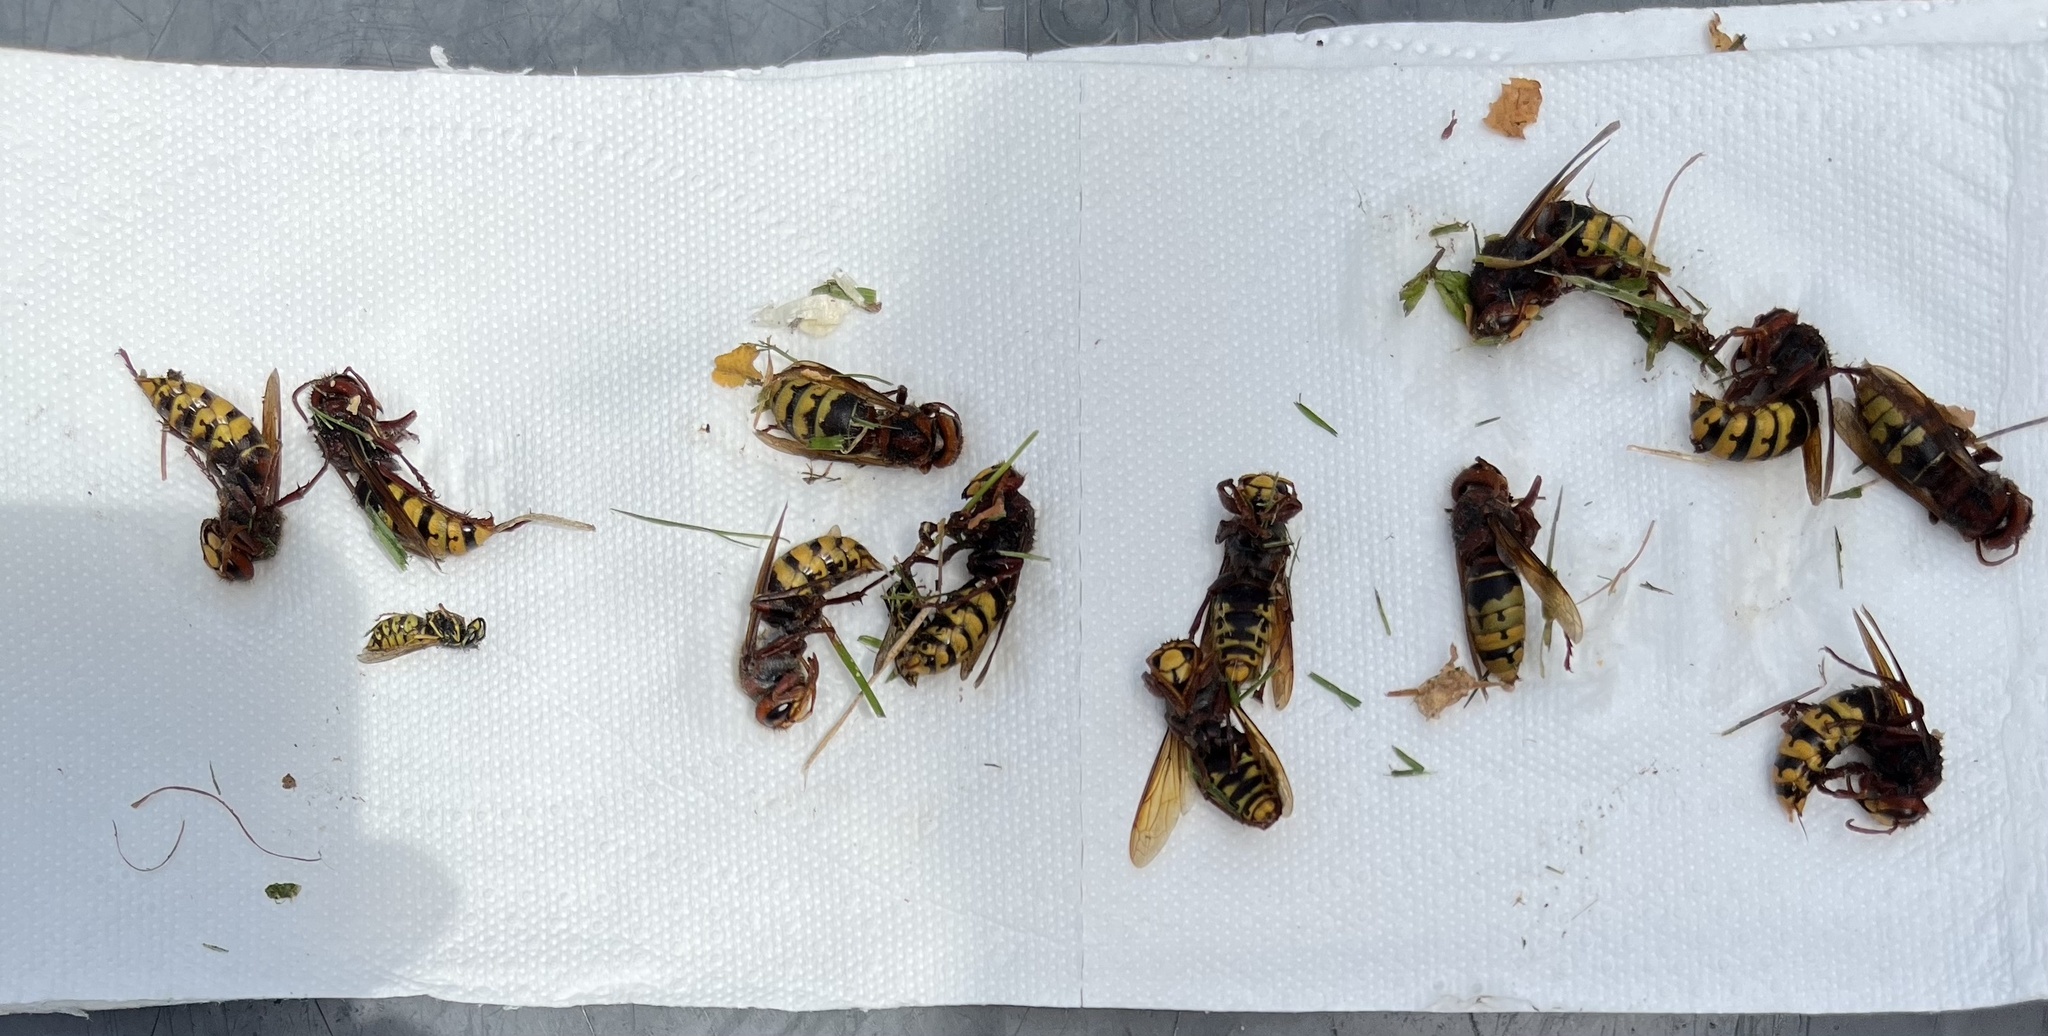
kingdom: Animalia
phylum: Arthropoda
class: Insecta
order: Hymenoptera
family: Vespidae
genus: Vespa
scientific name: Vespa crabro
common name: Hornet
